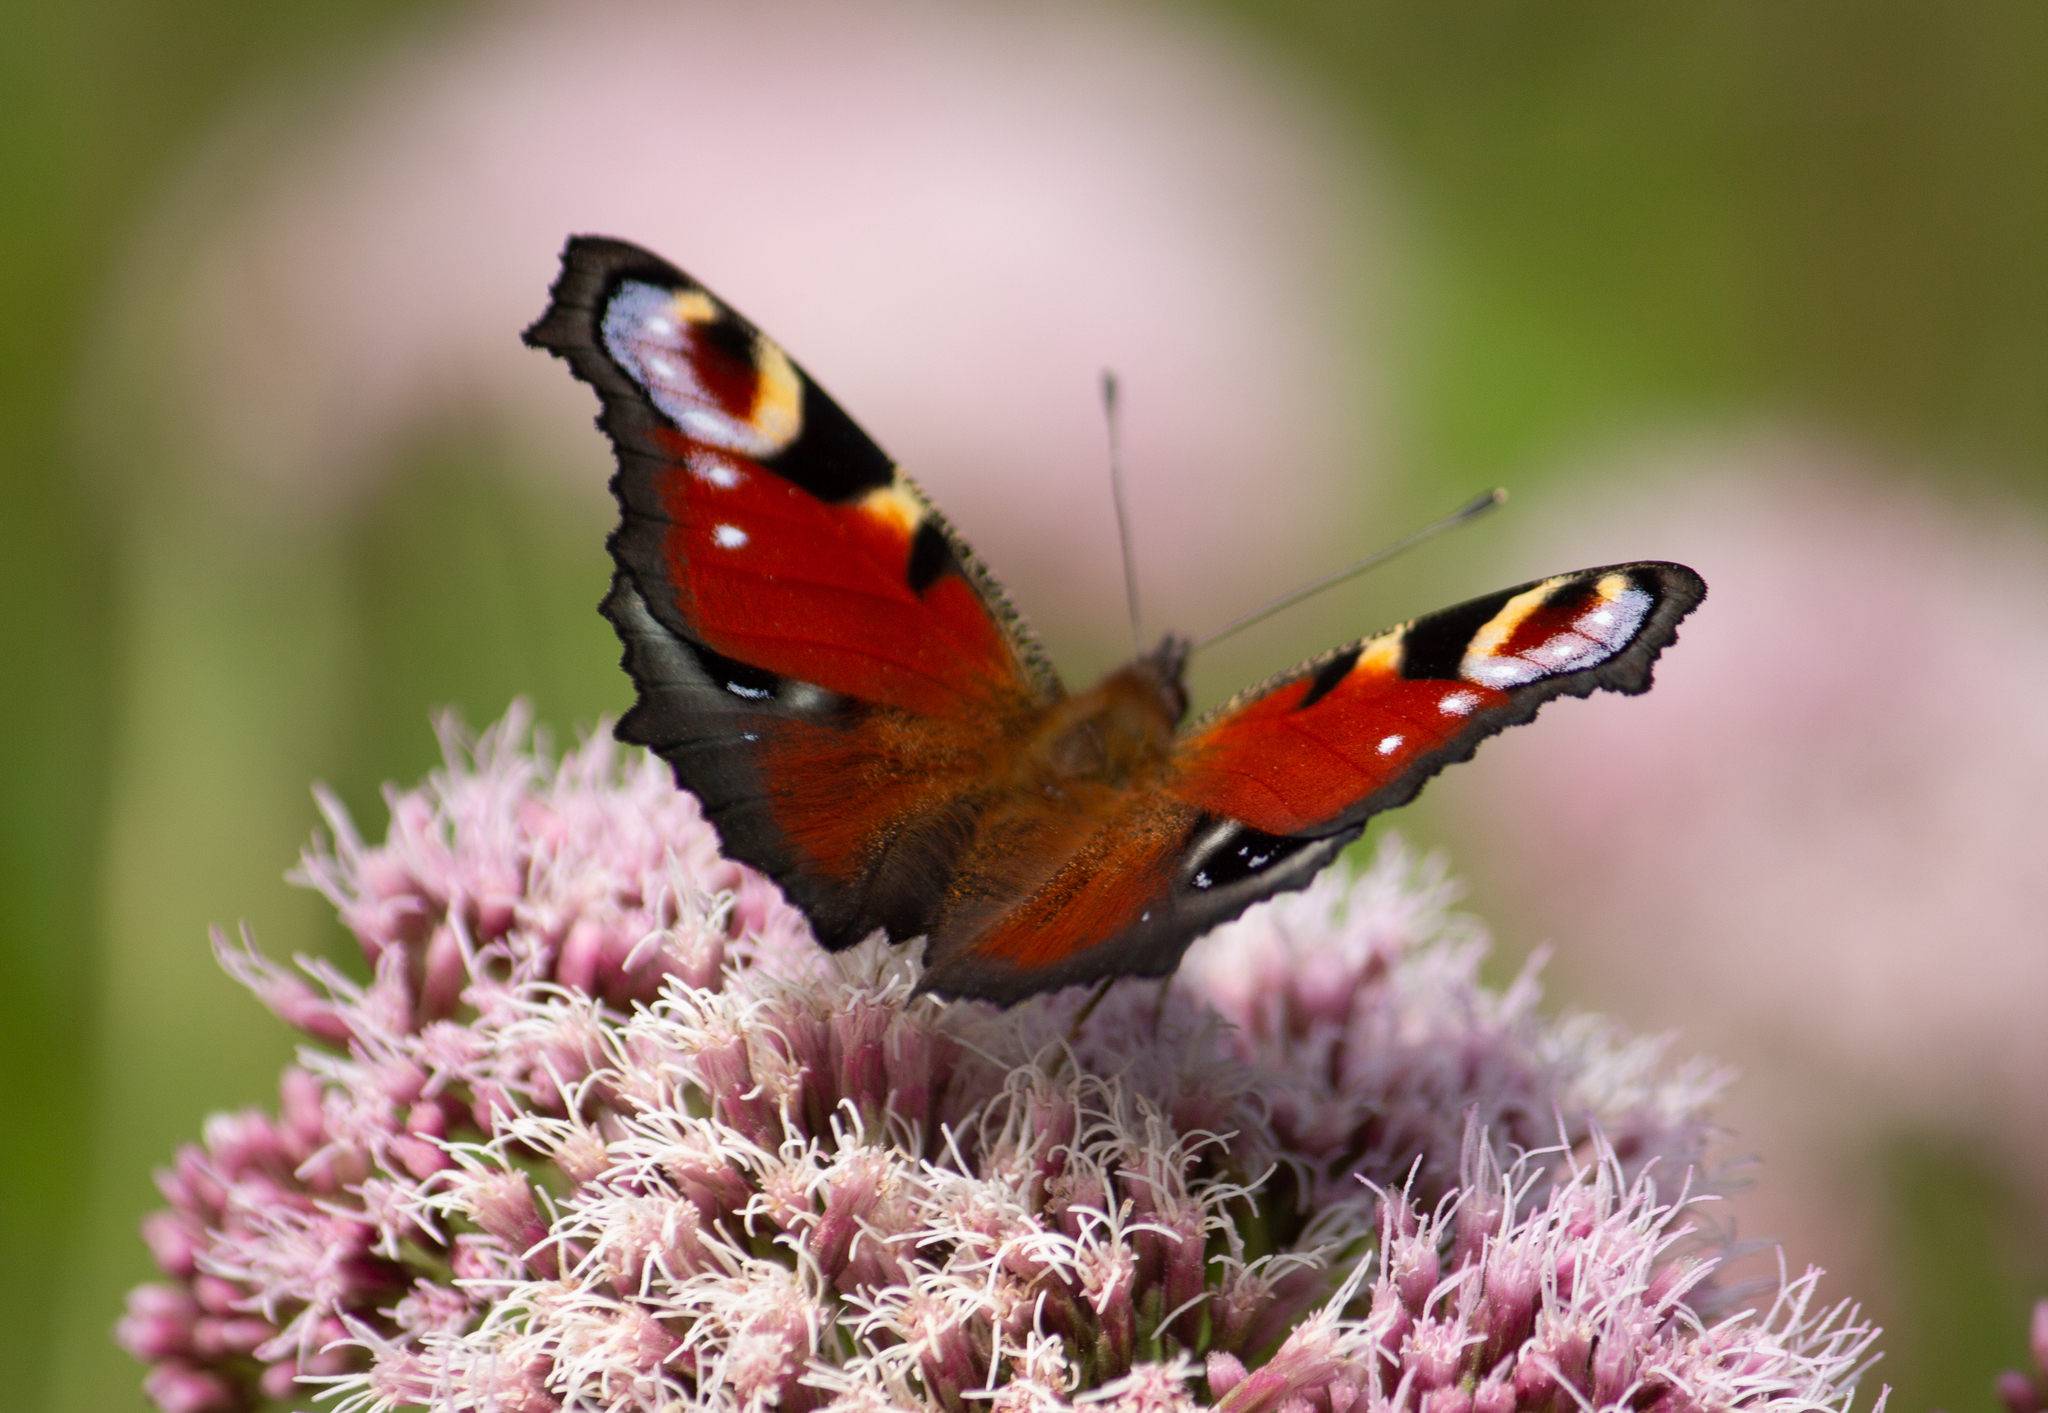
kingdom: Animalia
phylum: Arthropoda
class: Insecta
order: Lepidoptera
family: Nymphalidae
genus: Aglais
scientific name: Aglais io
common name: Peacock
